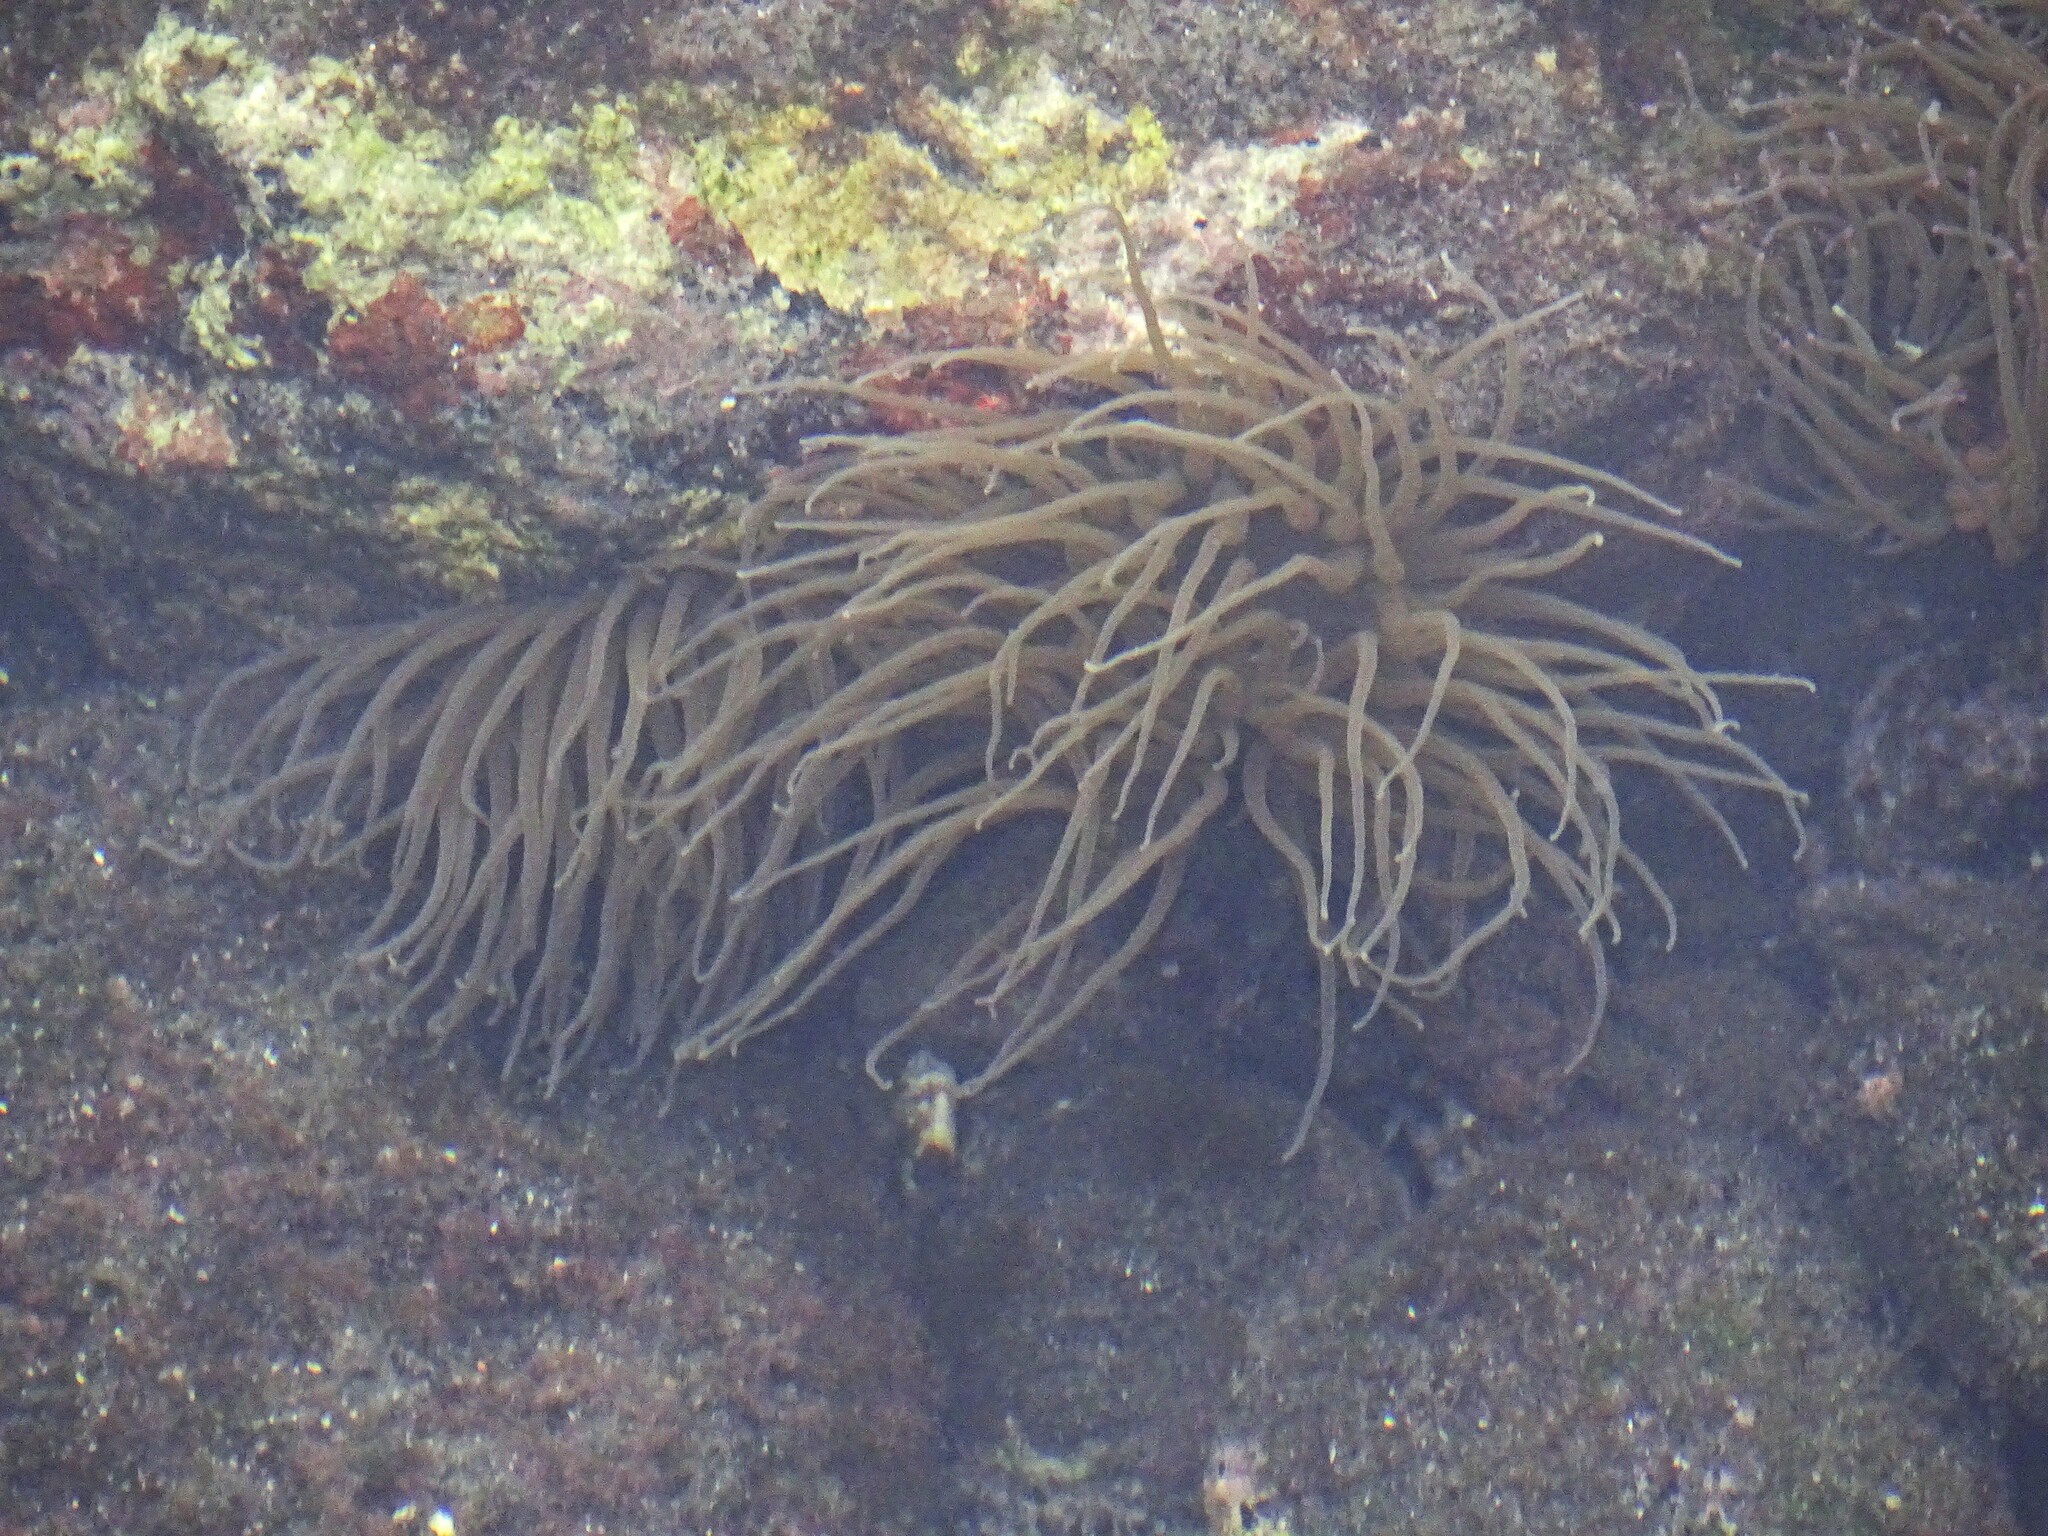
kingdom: Animalia
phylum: Cnidaria
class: Anthozoa
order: Actiniaria
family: Actiniidae
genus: Anemonia
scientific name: Anemonia viridis
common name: Snakelocks anemone
